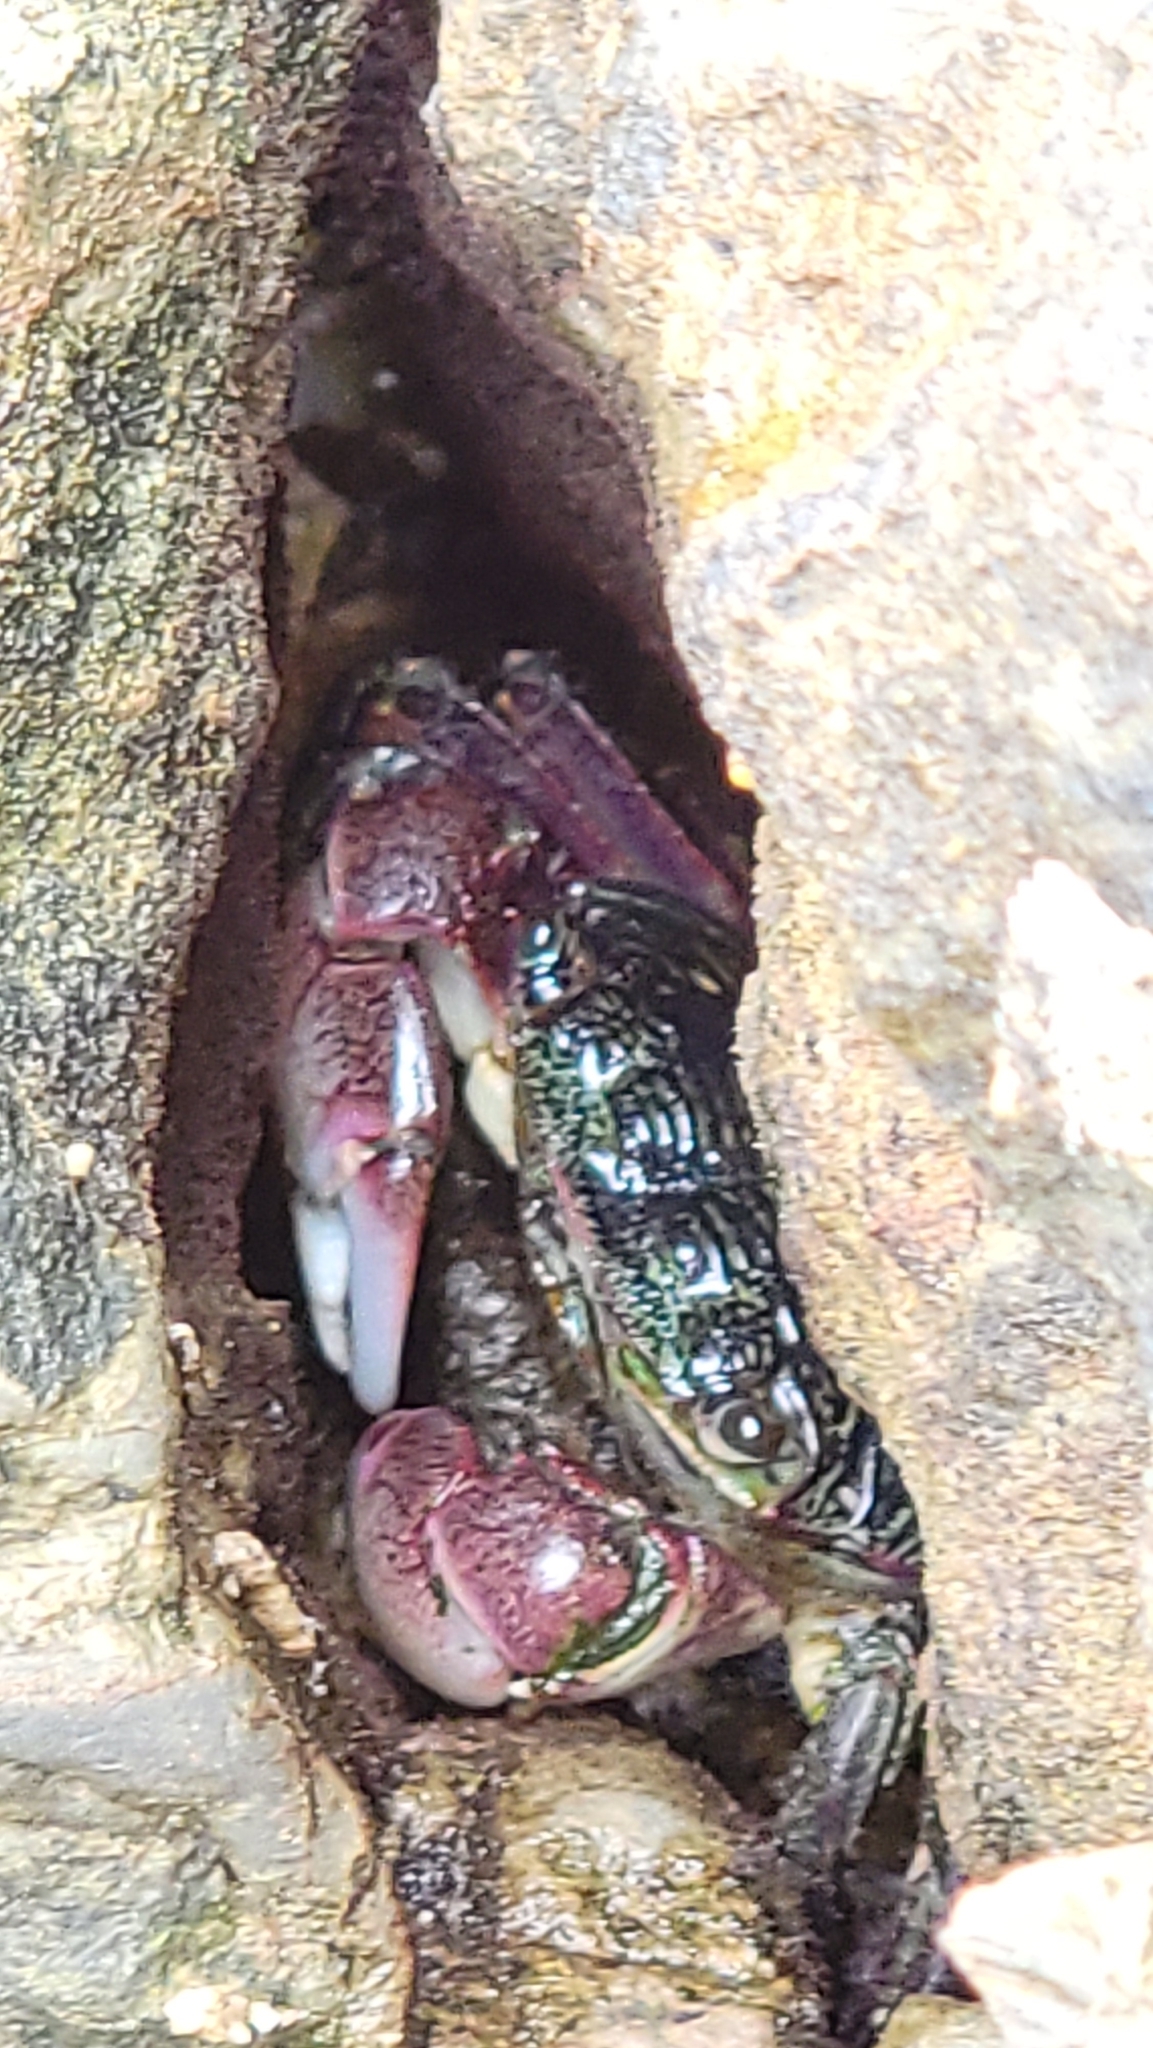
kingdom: Animalia
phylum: Arthropoda
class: Malacostraca
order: Decapoda
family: Grapsidae
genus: Pachygrapsus
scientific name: Pachygrapsus crassipes
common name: Striped shore crab
